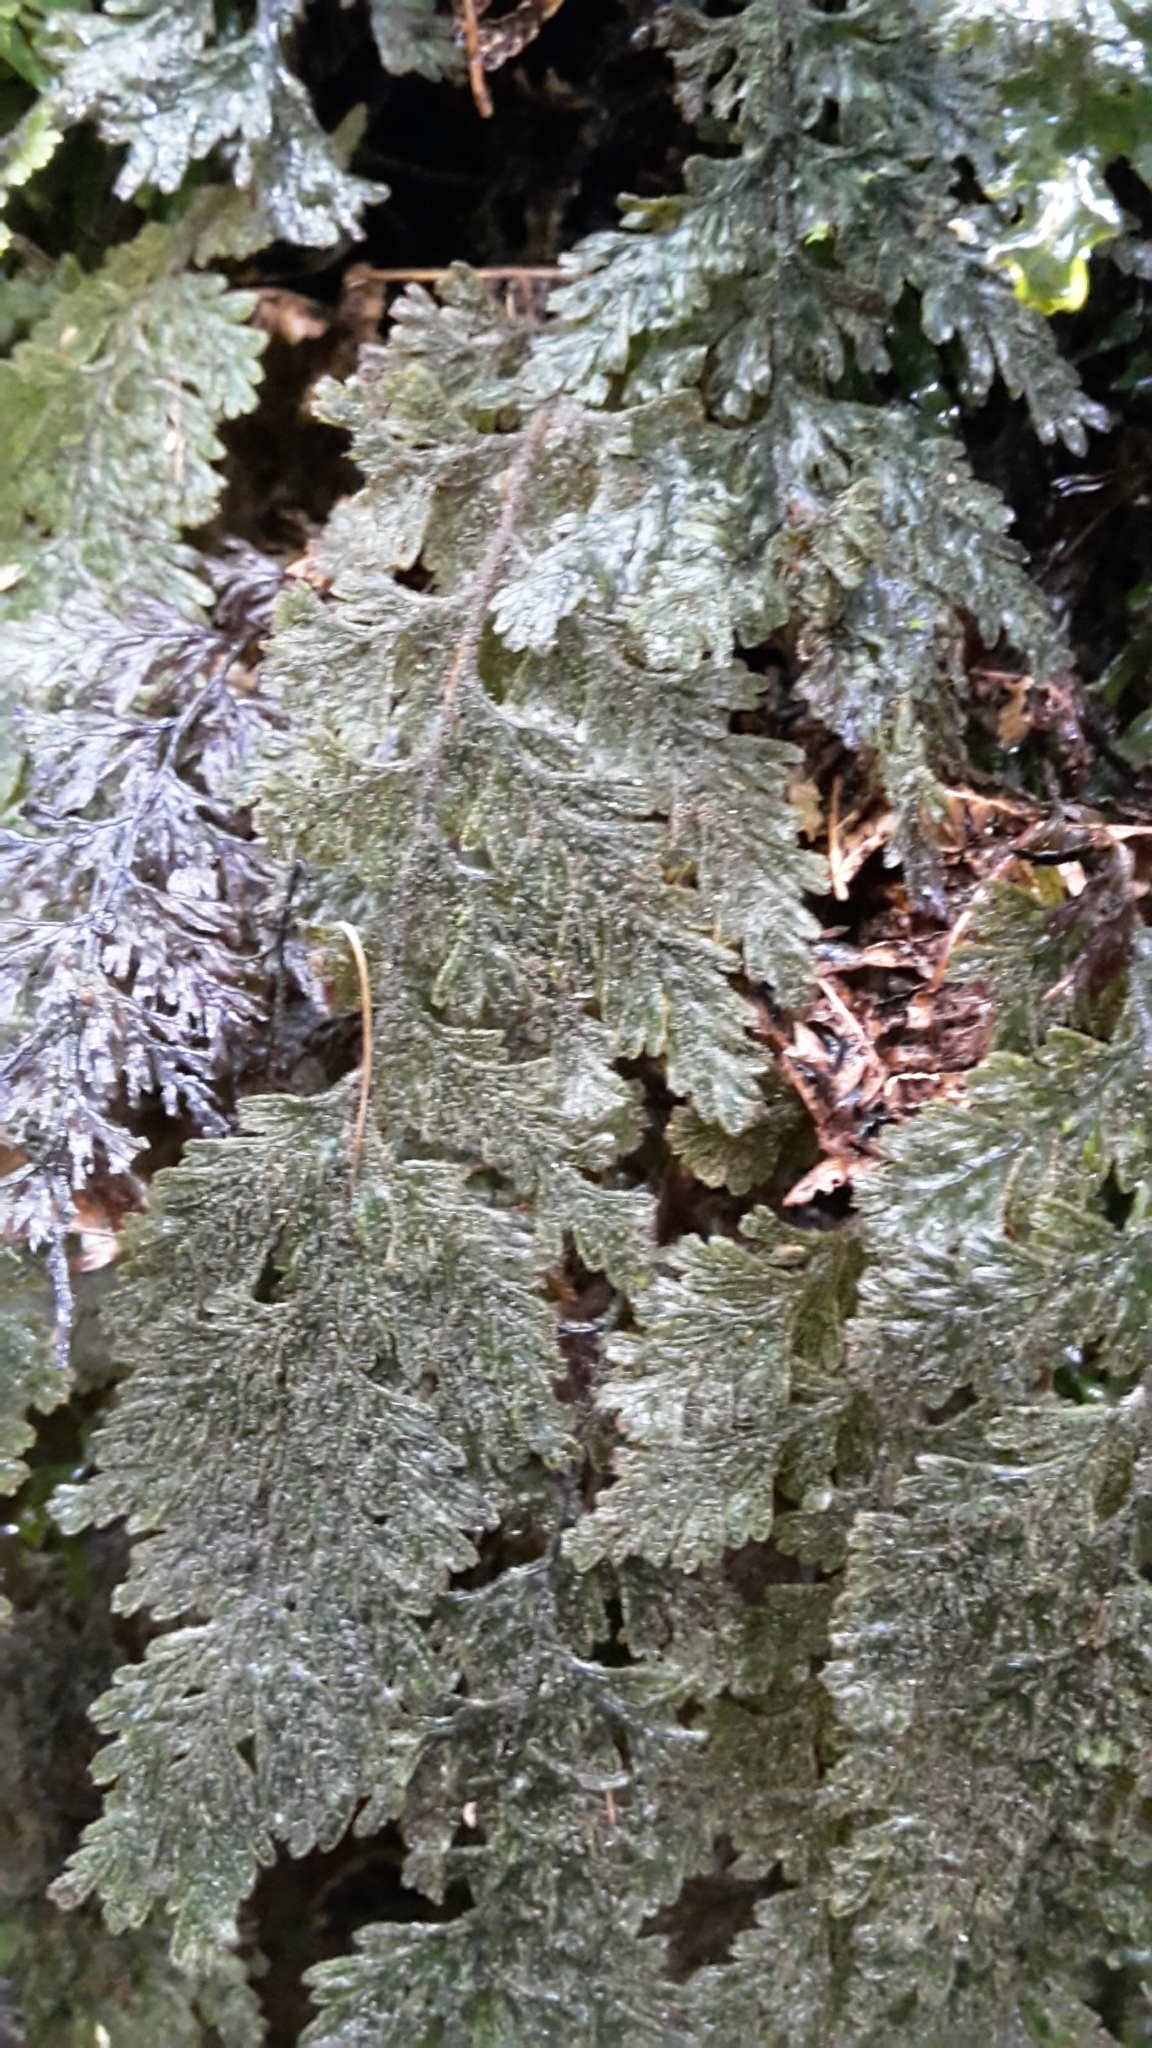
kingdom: Plantae
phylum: Tracheophyta
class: Polypodiopsida
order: Hymenophyllales
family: Hymenophyllaceae
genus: Hymenophyllum
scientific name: Hymenophyllum frankliniae
